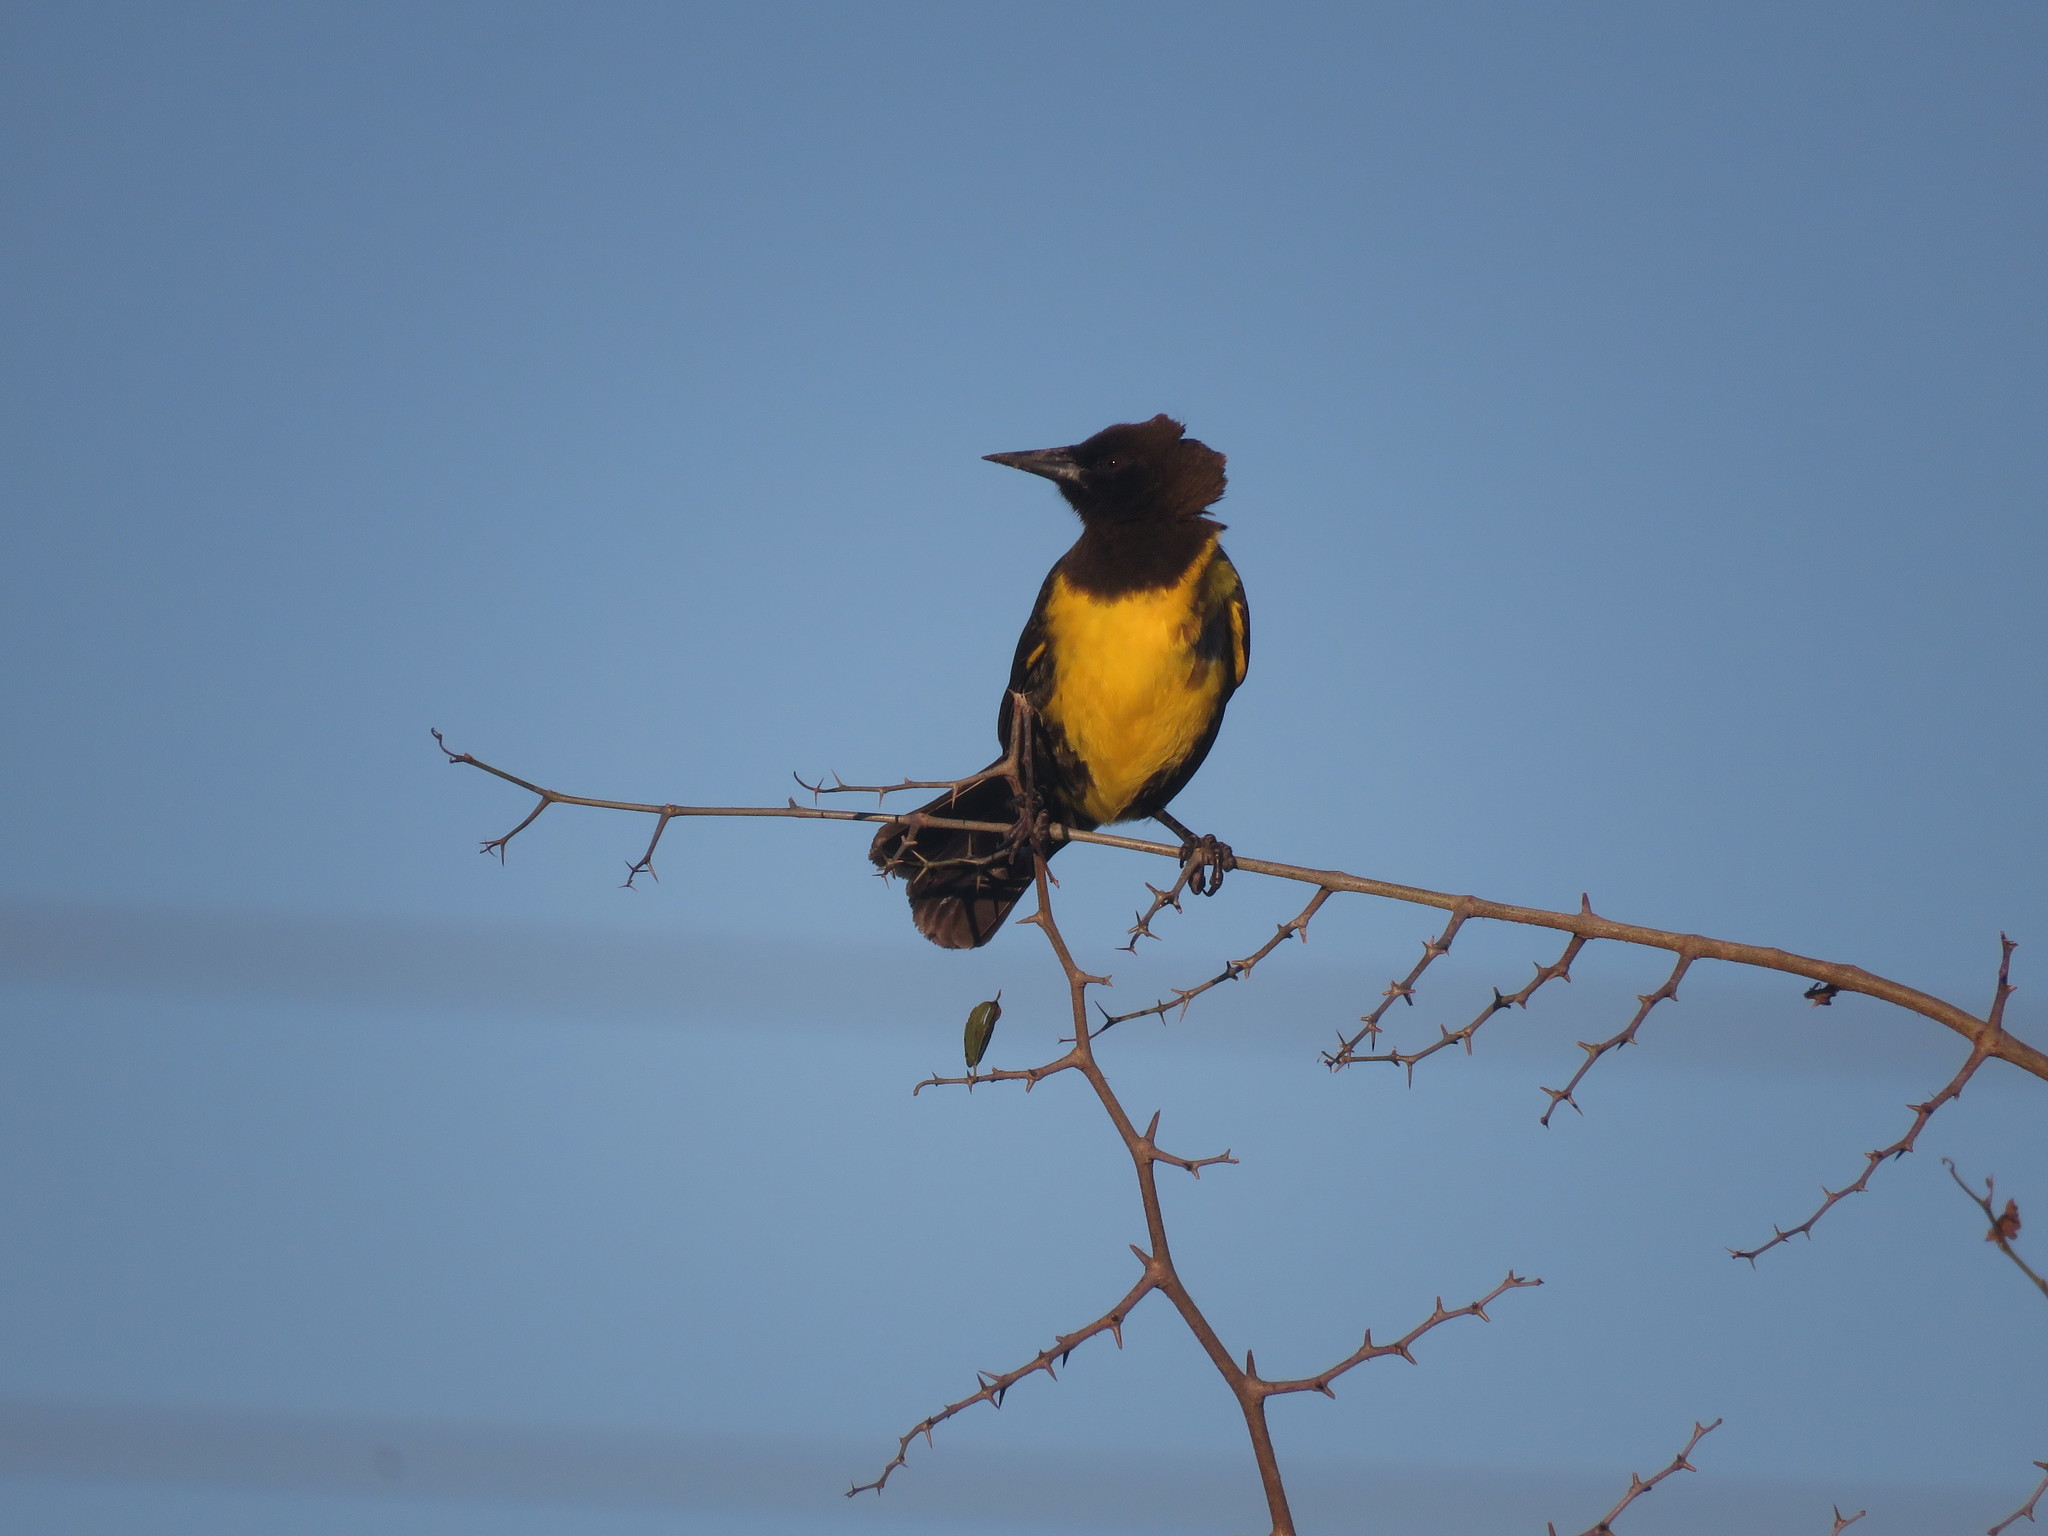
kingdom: Animalia
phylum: Chordata
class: Aves
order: Passeriformes
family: Icteridae
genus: Pseudoleistes
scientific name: Pseudoleistes virescens
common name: Brown-and-yellow marshbird
